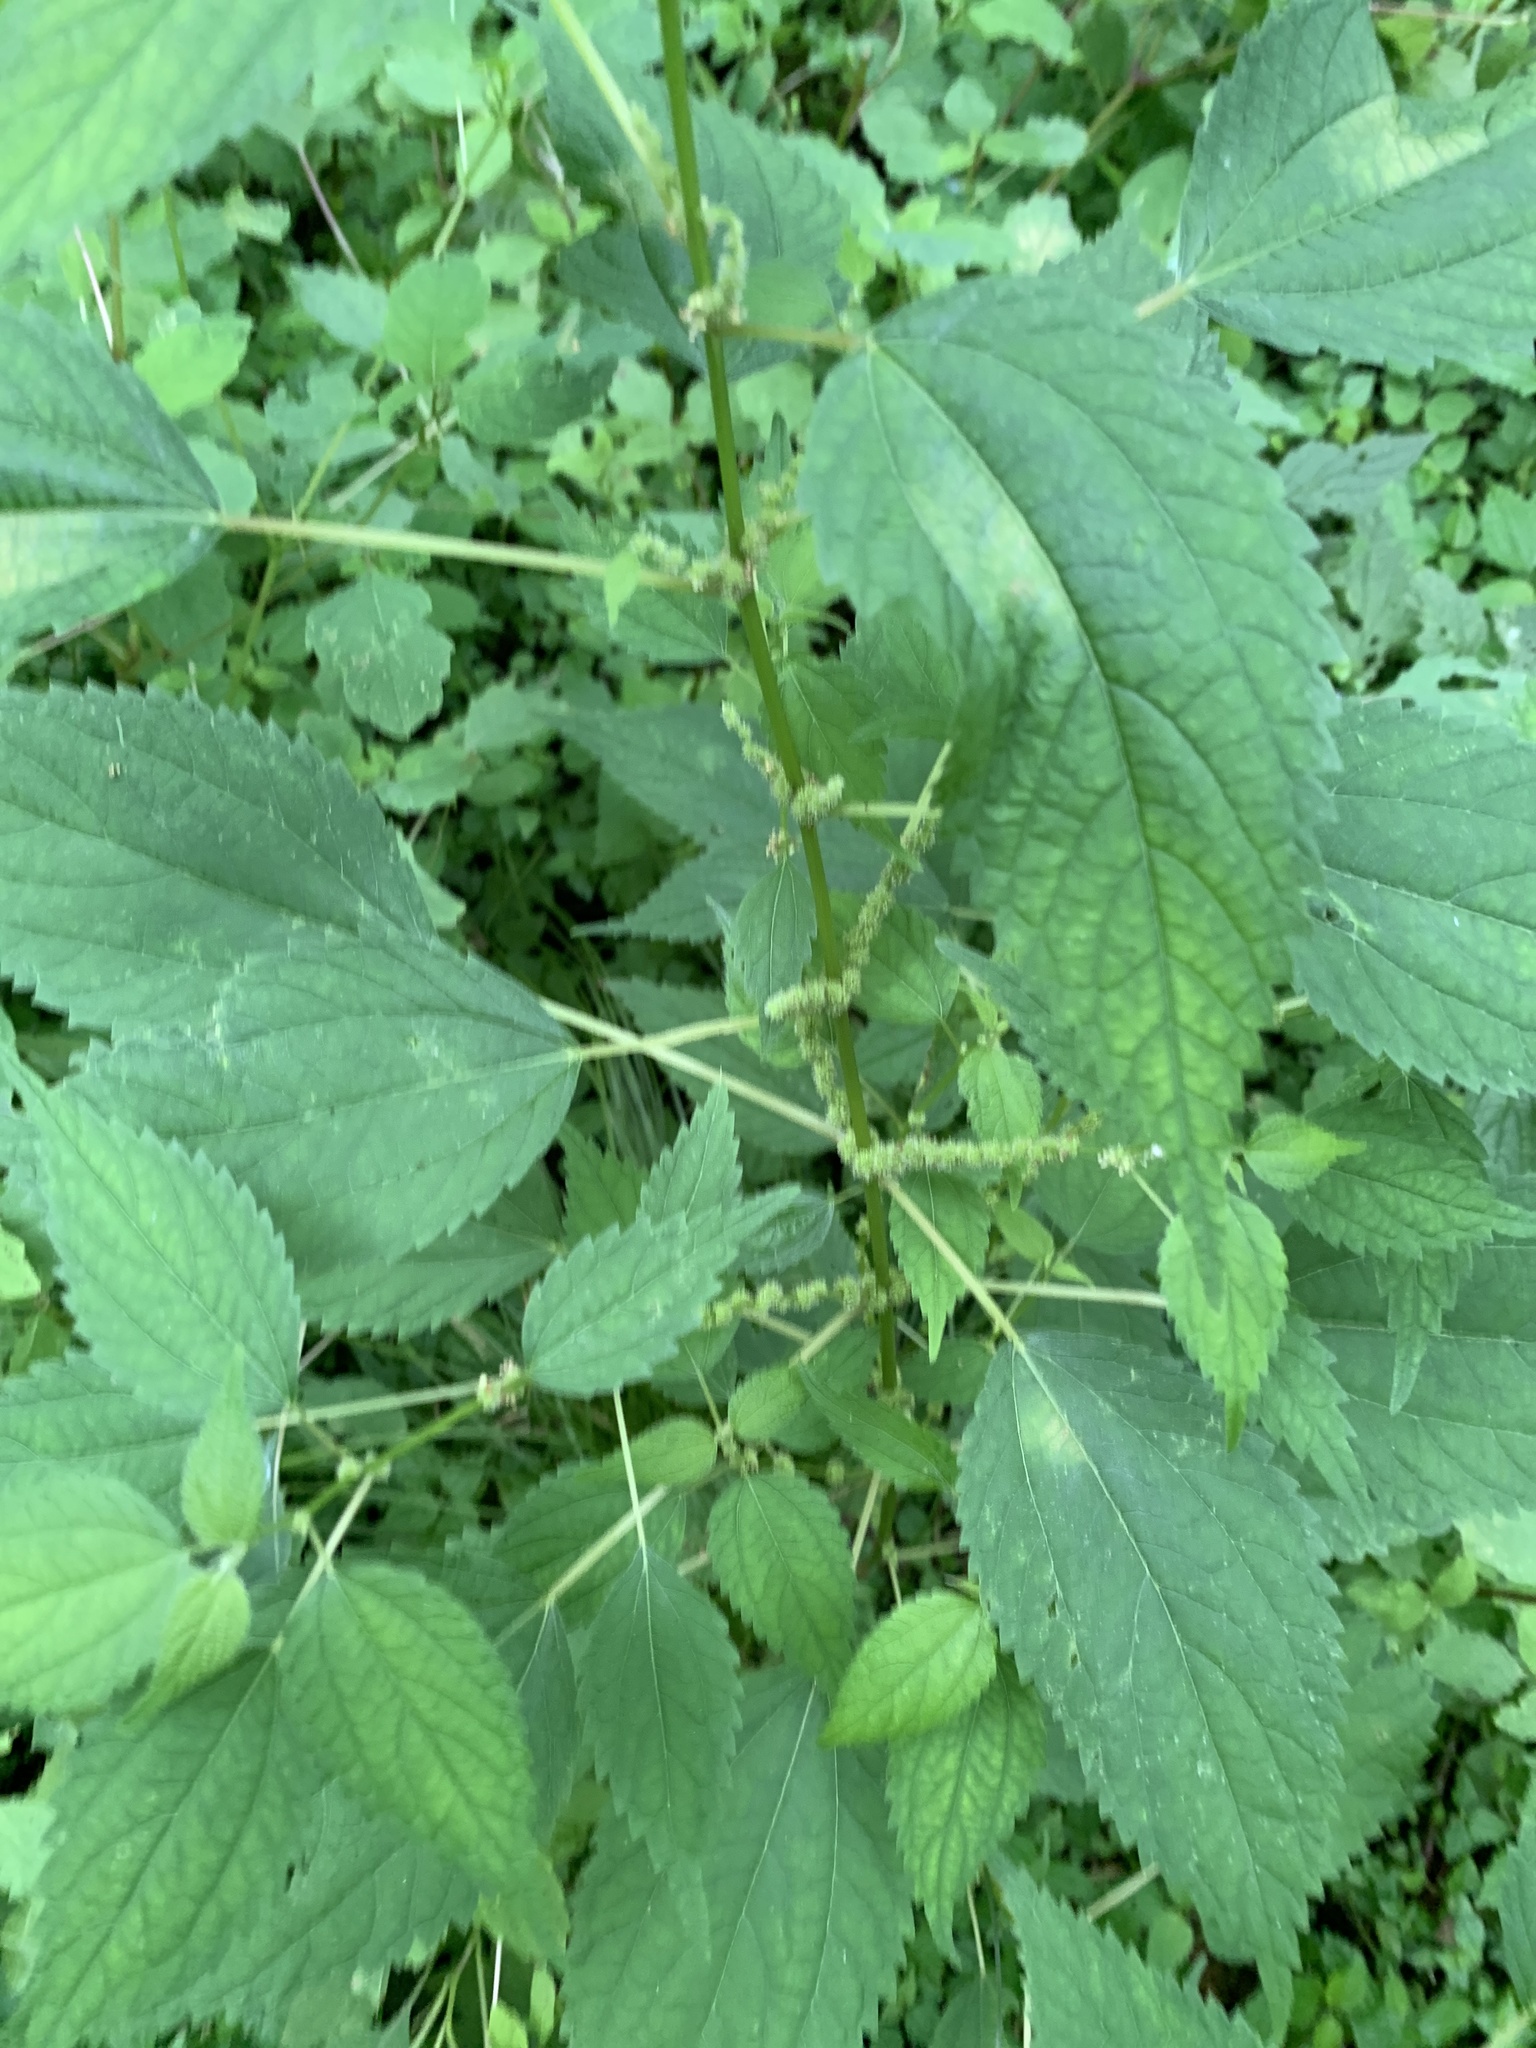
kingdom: Plantae
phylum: Tracheophyta
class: Magnoliopsida
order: Rosales
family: Urticaceae
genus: Boehmeria
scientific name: Boehmeria cylindrica
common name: Bog-hemp
